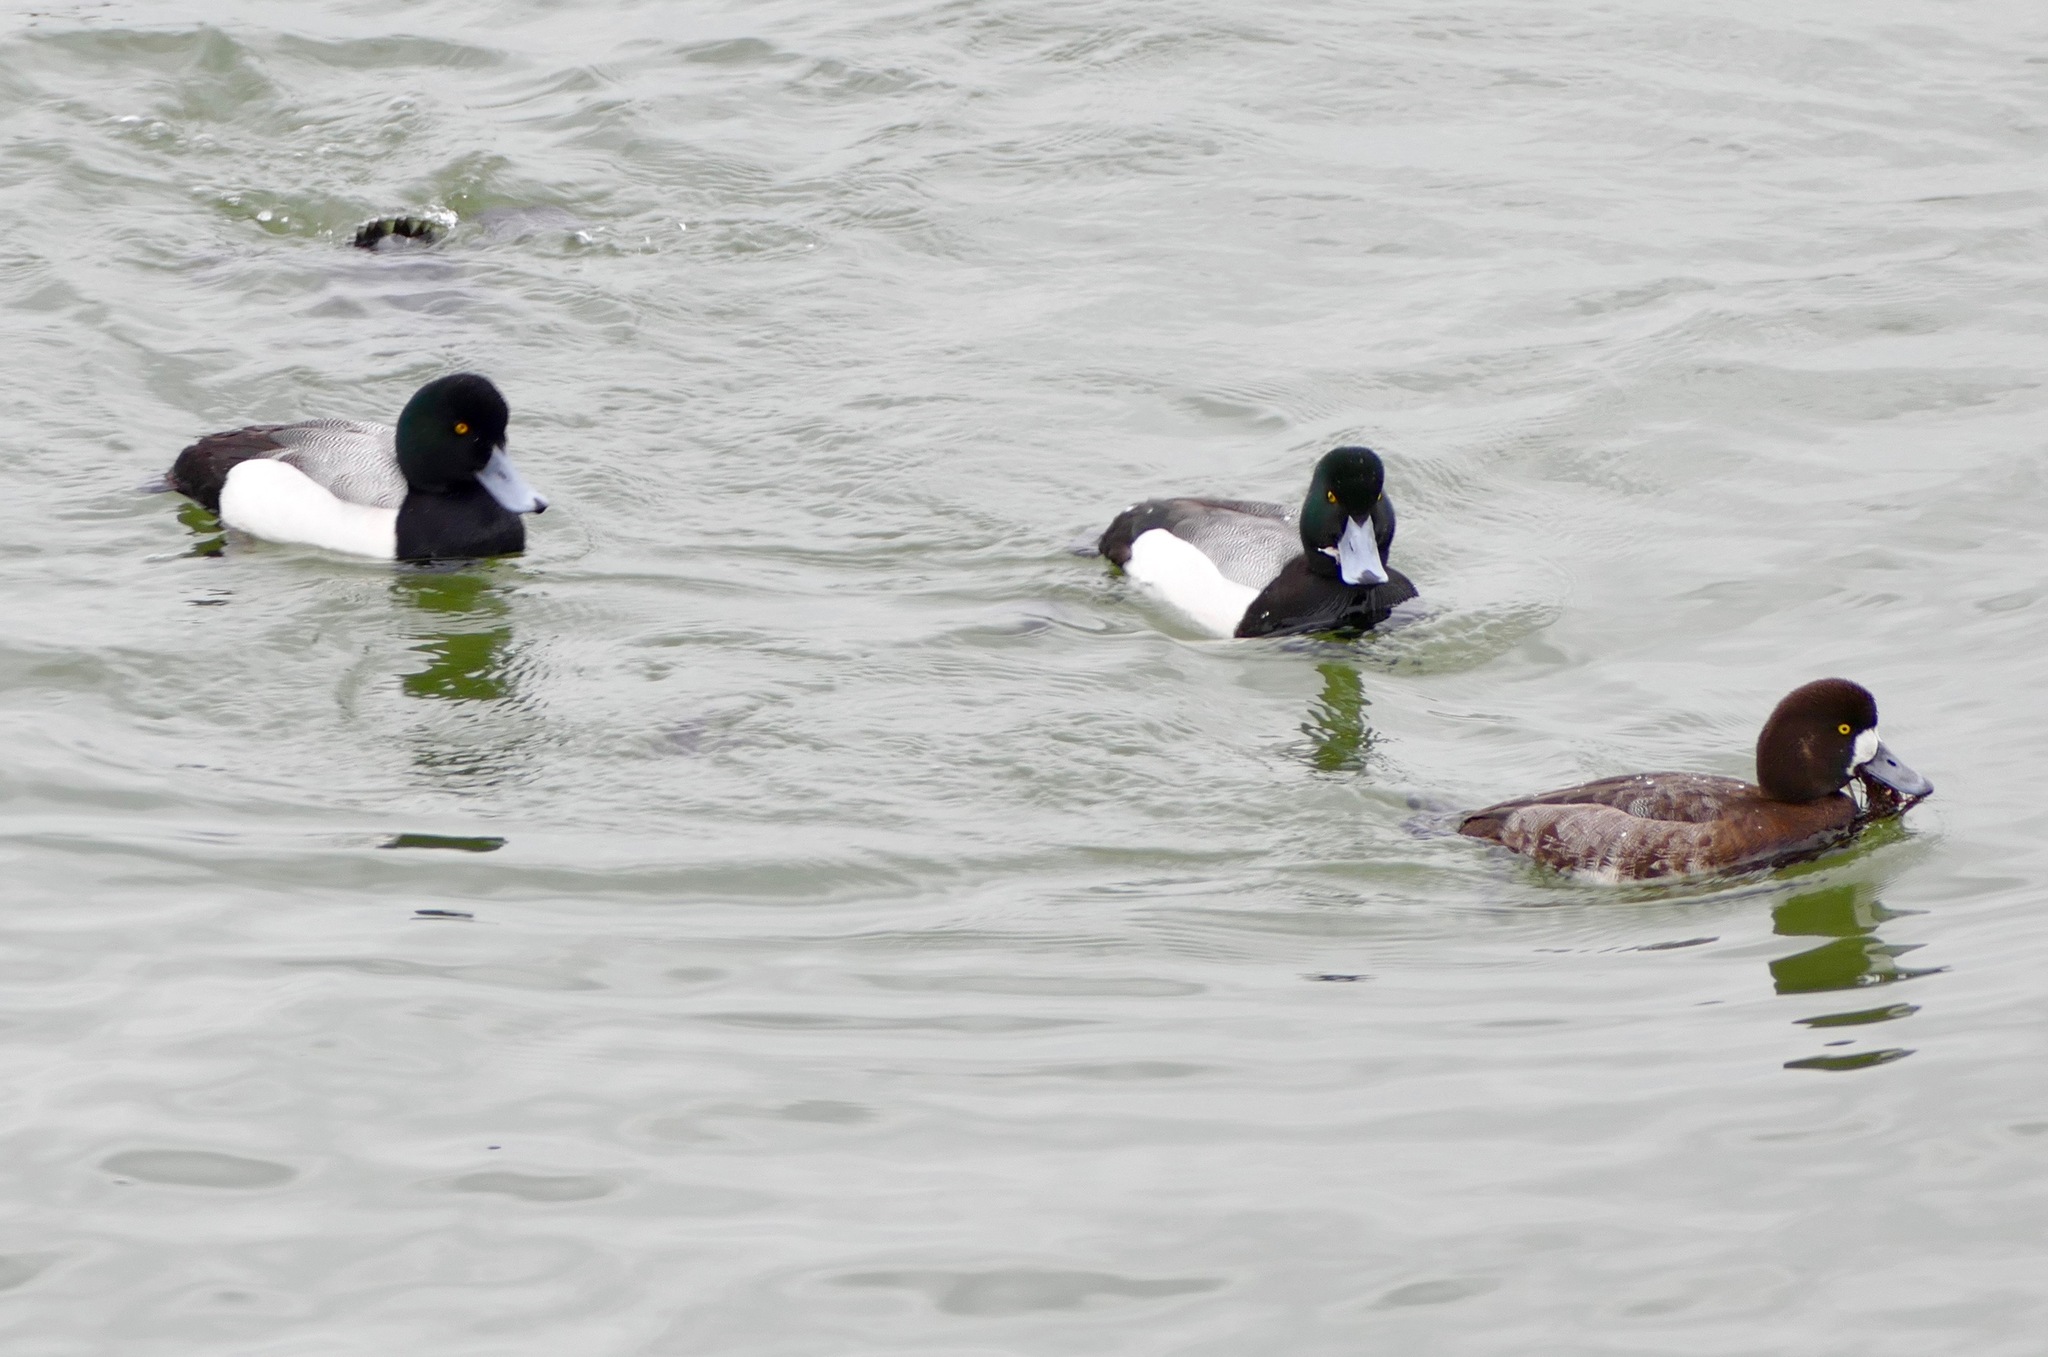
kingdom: Animalia
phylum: Chordata
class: Aves
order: Anseriformes
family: Anatidae
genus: Aythya
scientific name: Aythya marila
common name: Greater scaup
